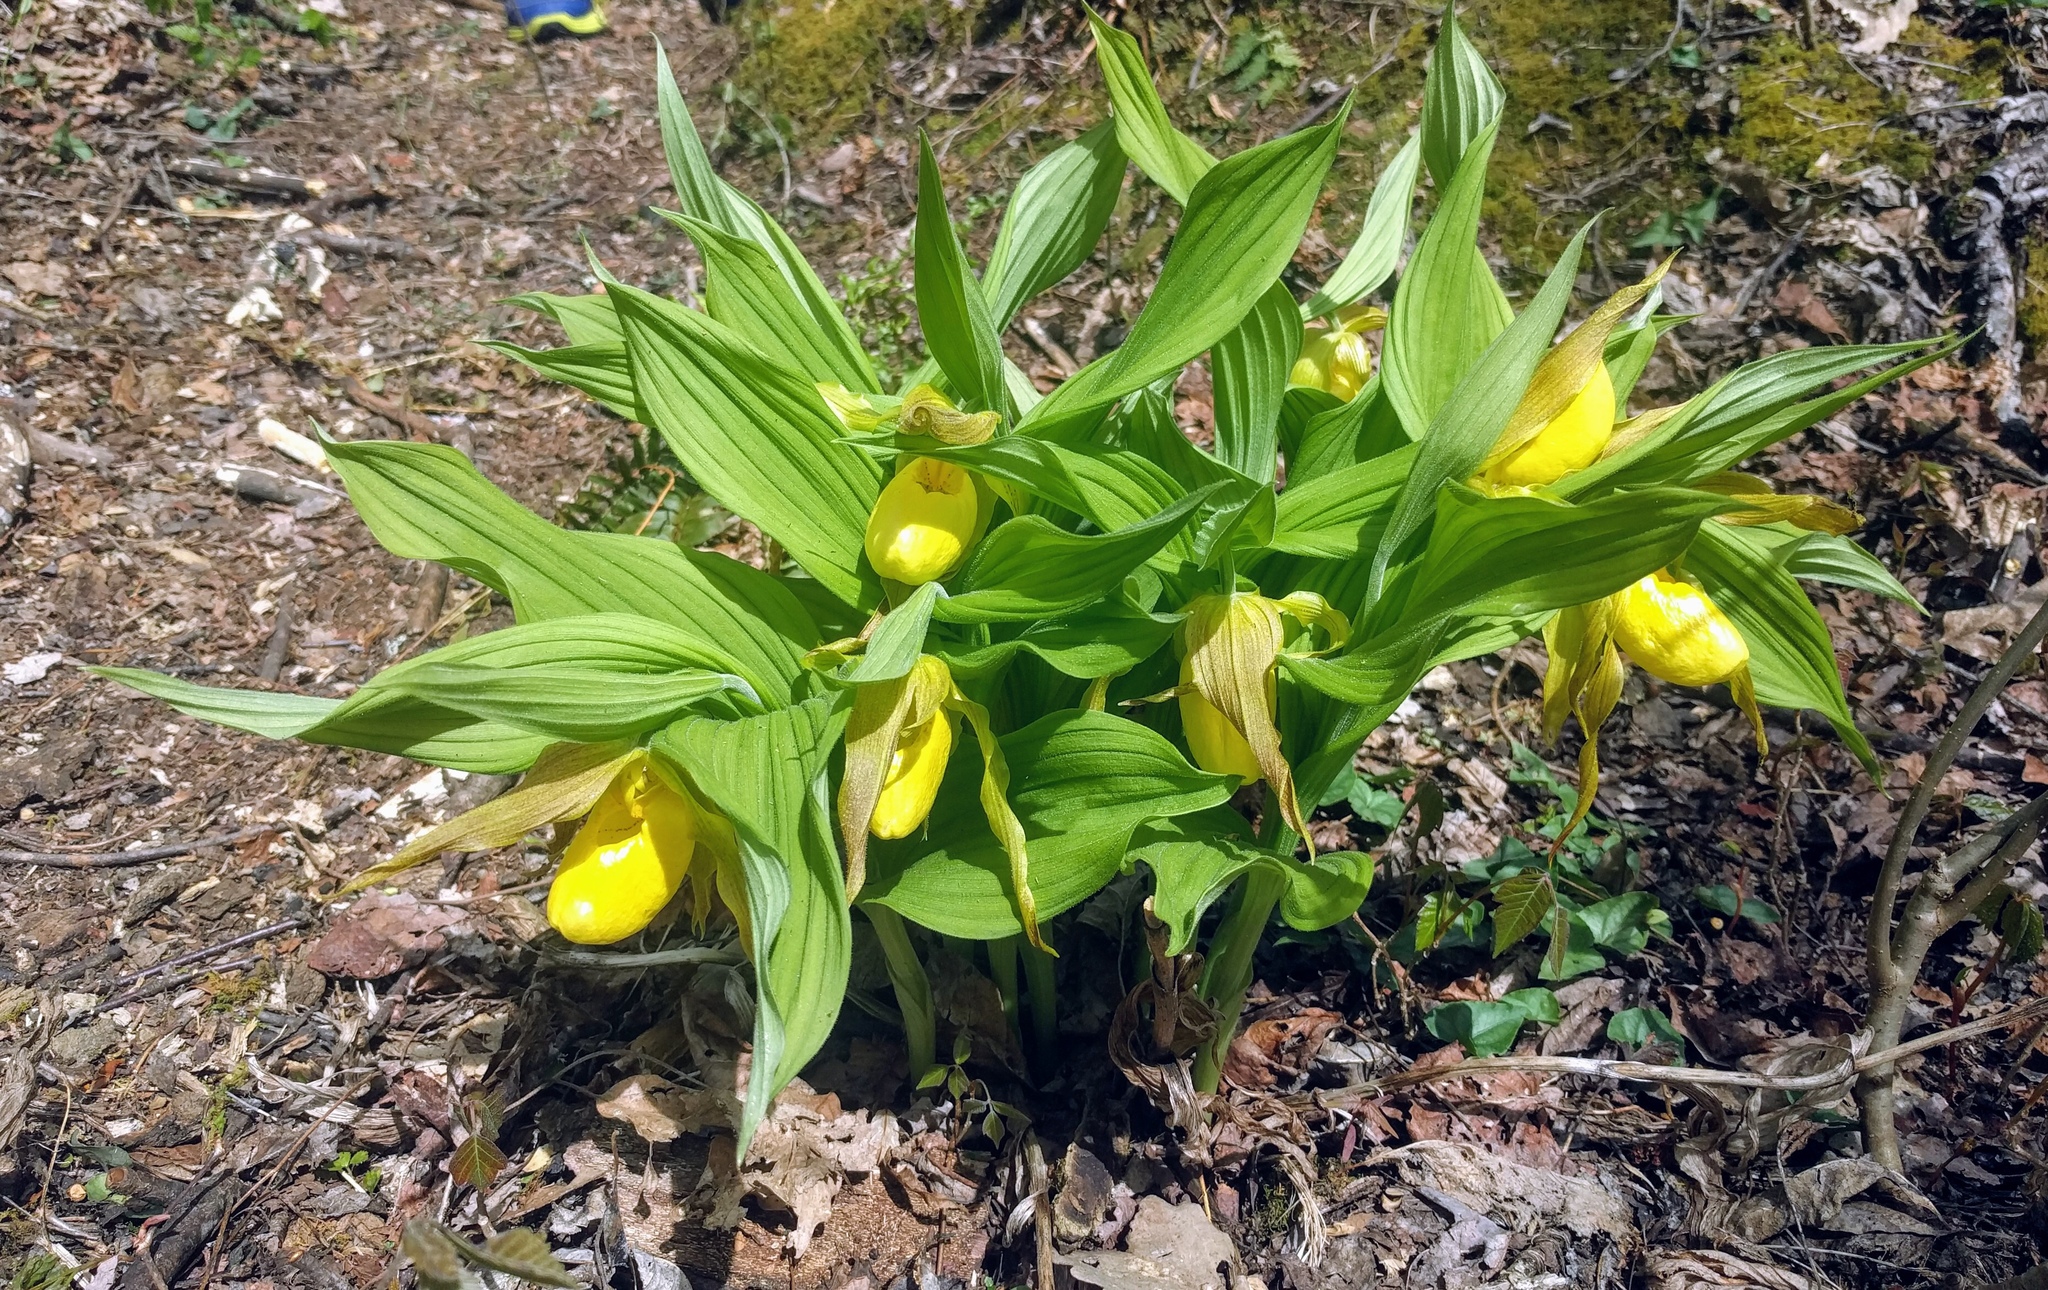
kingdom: Plantae
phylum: Tracheophyta
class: Liliopsida
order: Asparagales
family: Orchidaceae
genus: Cypripedium
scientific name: Cypripedium parviflorum
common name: American yellow lady's-slipper
